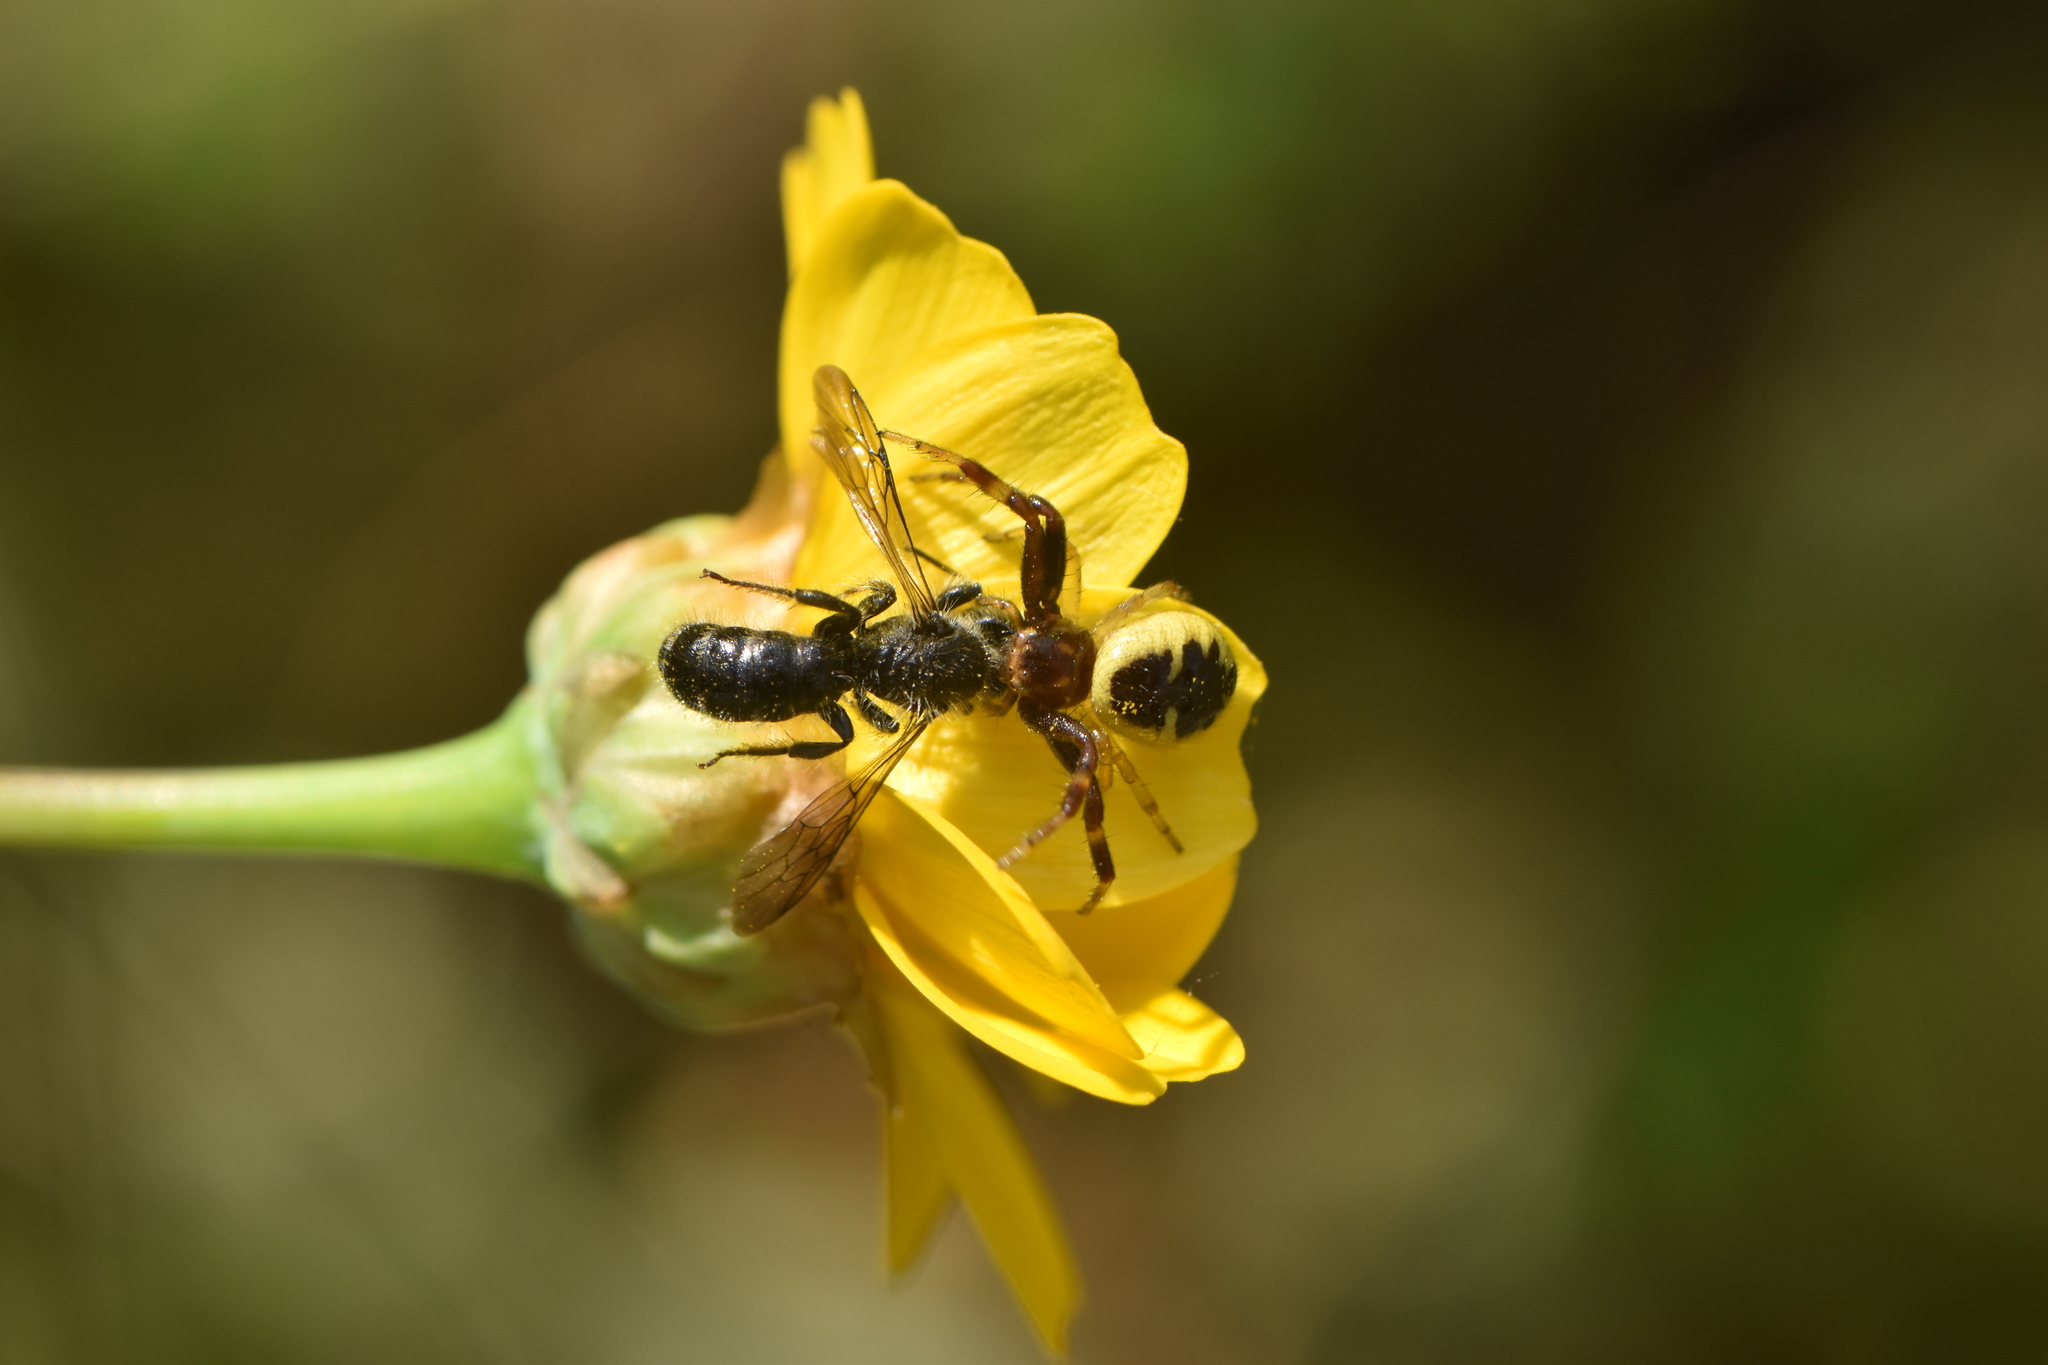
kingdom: Animalia
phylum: Arthropoda
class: Arachnida
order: Araneae
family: Thomisidae
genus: Synema
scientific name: Synema globosum
